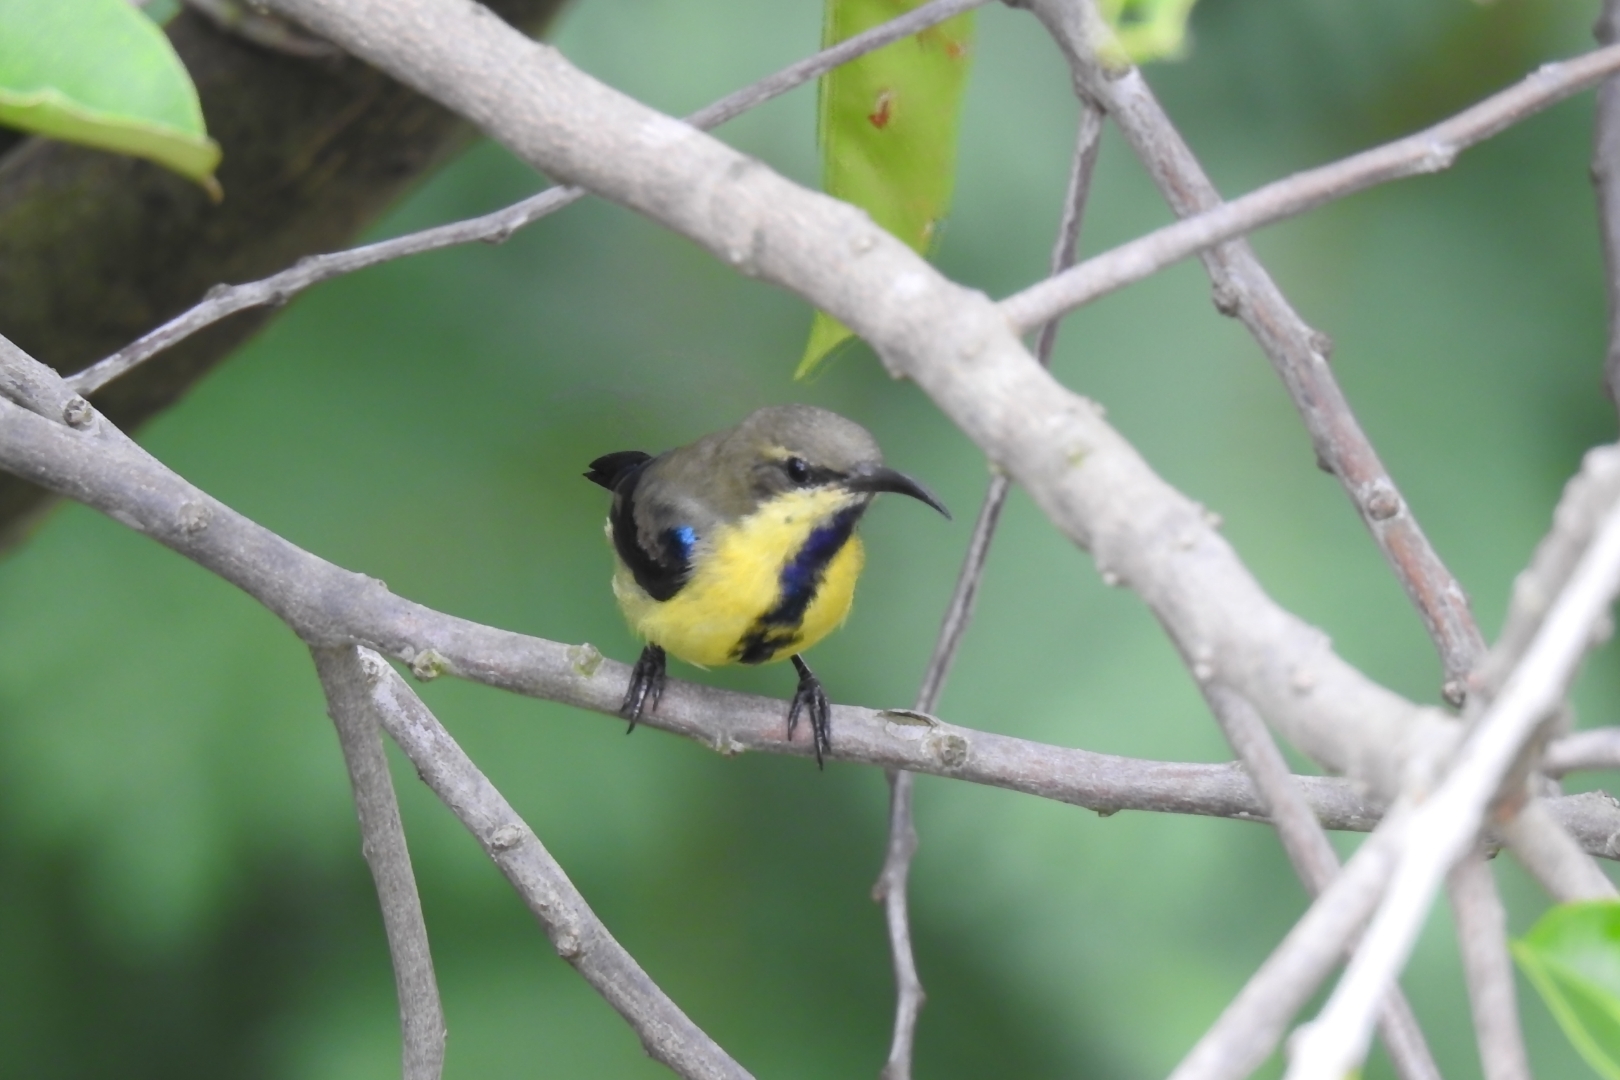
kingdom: Animalia
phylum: Chordata
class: Aves
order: Passeriformes
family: Nectariniidae
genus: Cinnyris
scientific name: Cinnyris asiaticus
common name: Purple sunbird
